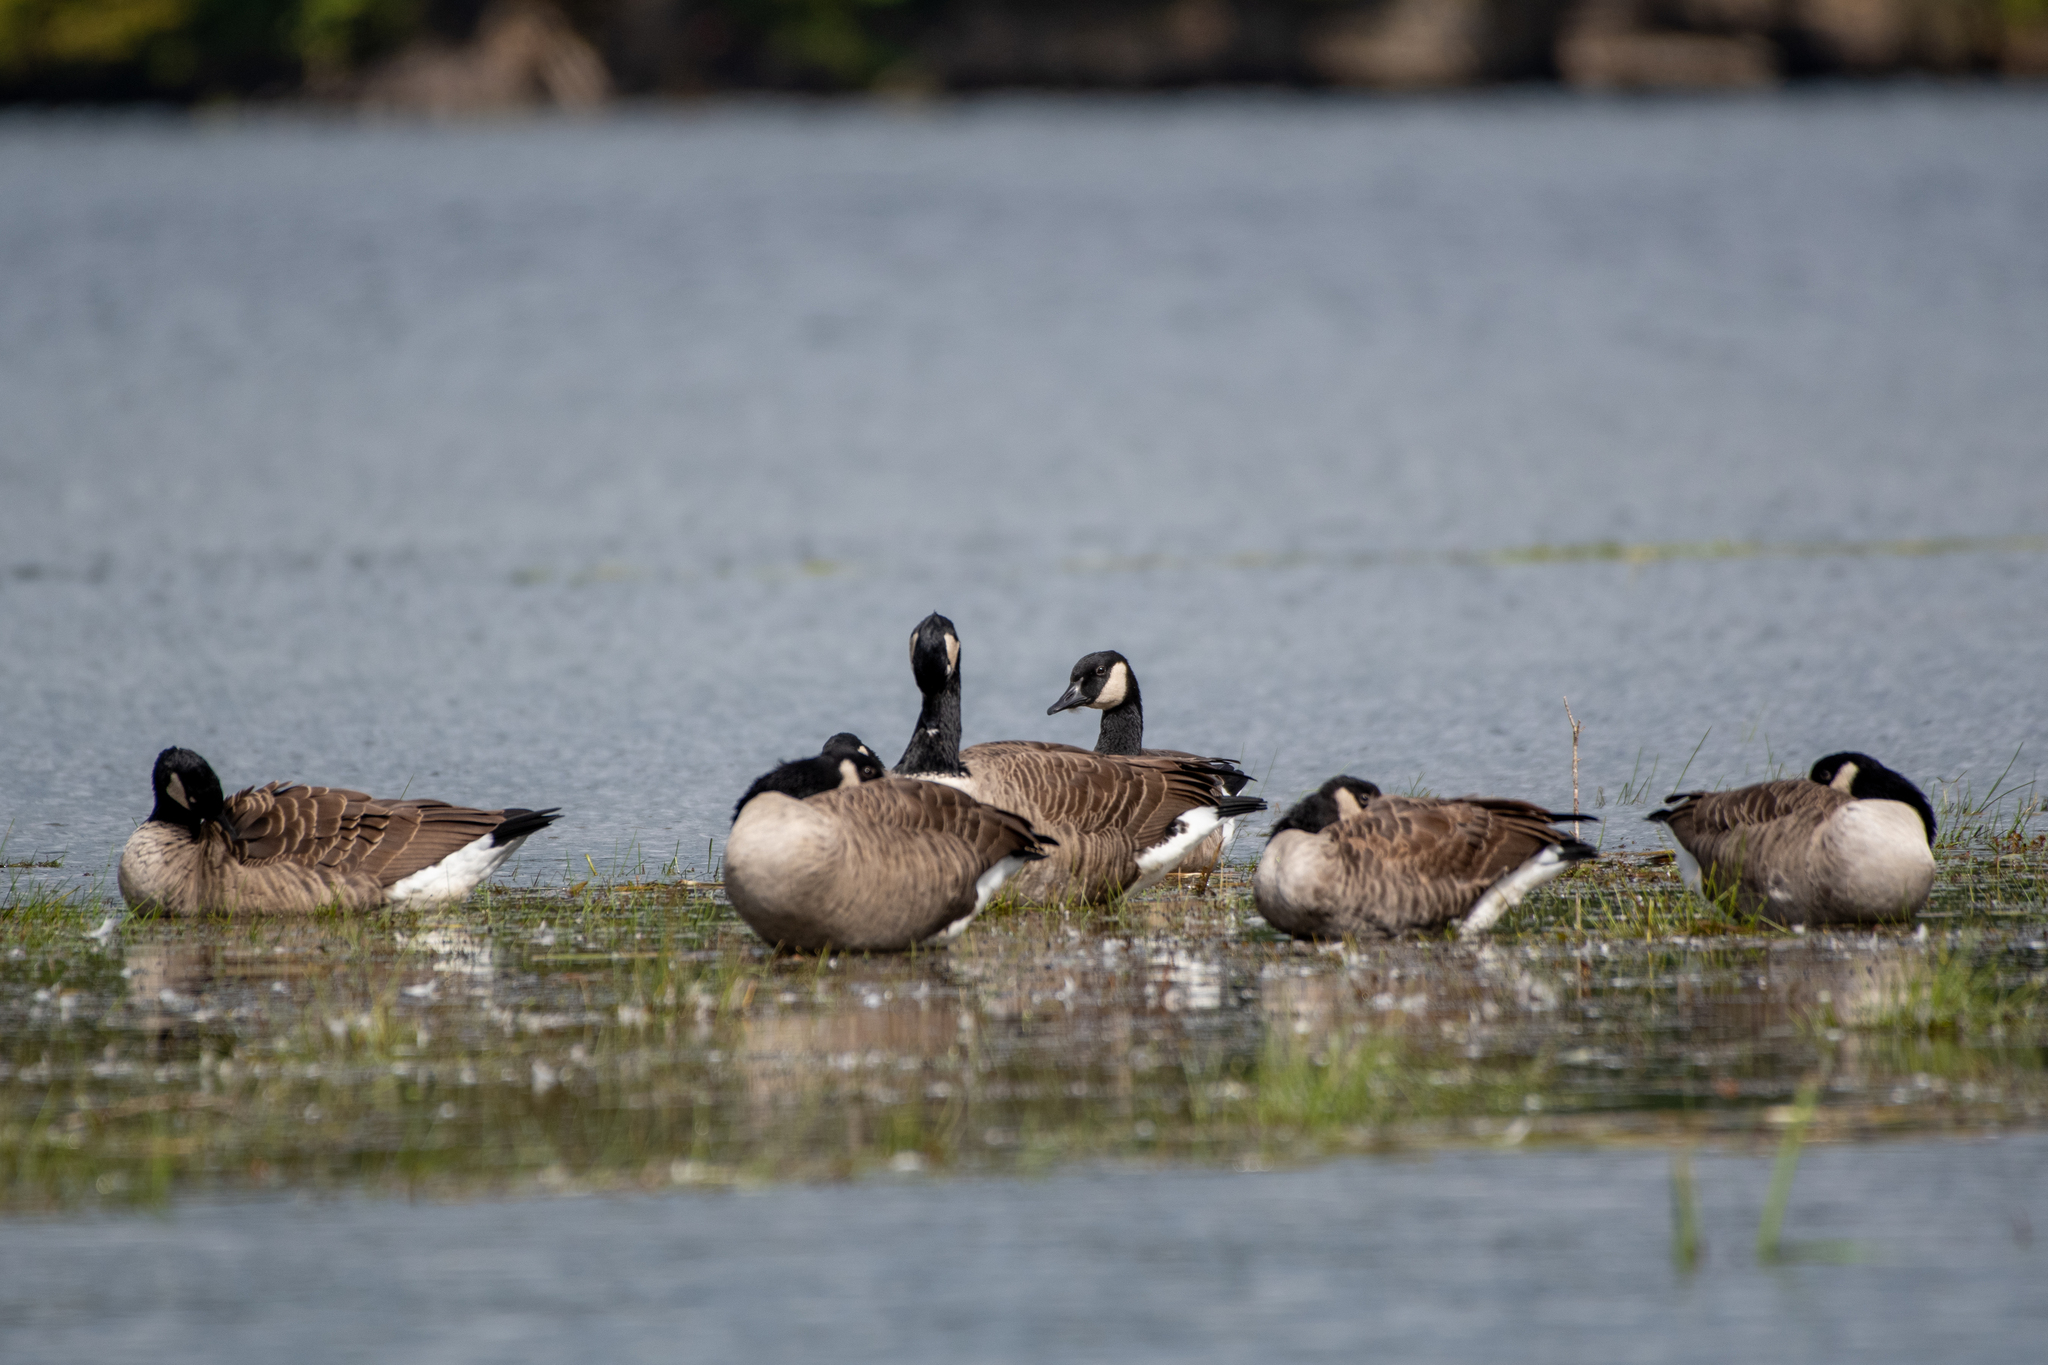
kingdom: Animalia
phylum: Chordata
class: Aves
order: Anseriformes
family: Anatidae
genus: Branta
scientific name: Branta canadensis
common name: Canada goose
